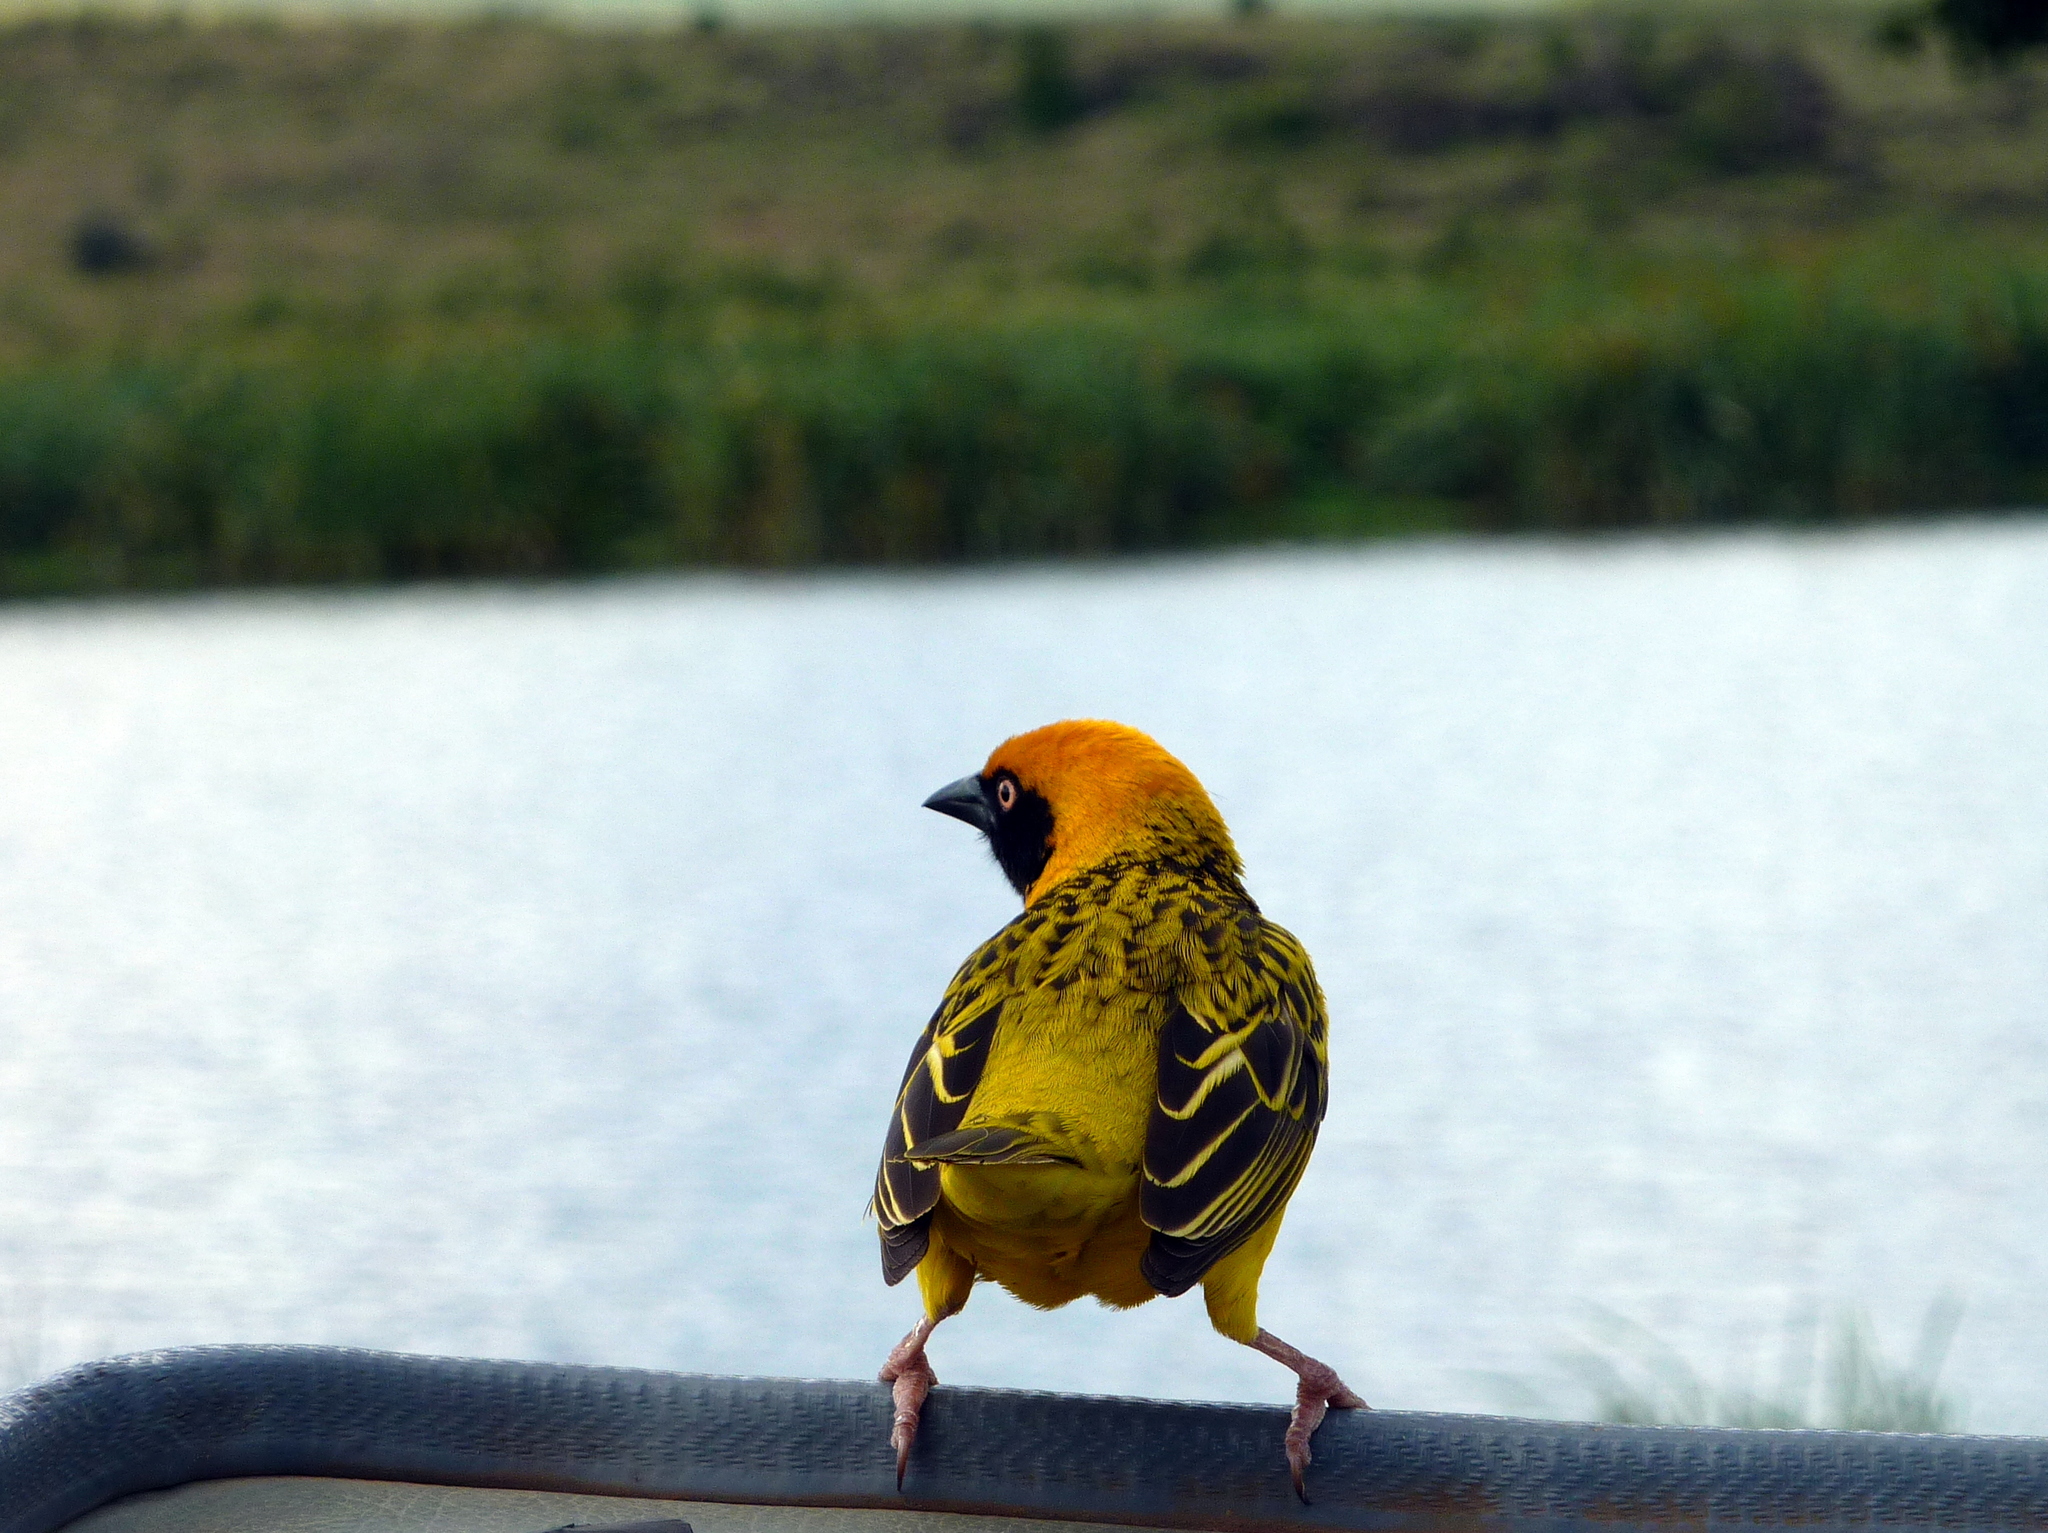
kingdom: Animalia
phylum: Chordata
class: Aves
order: Passeriformes
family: Ploceidae
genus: Ploceus
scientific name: Ploceus spekei
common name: Speke's weaver
